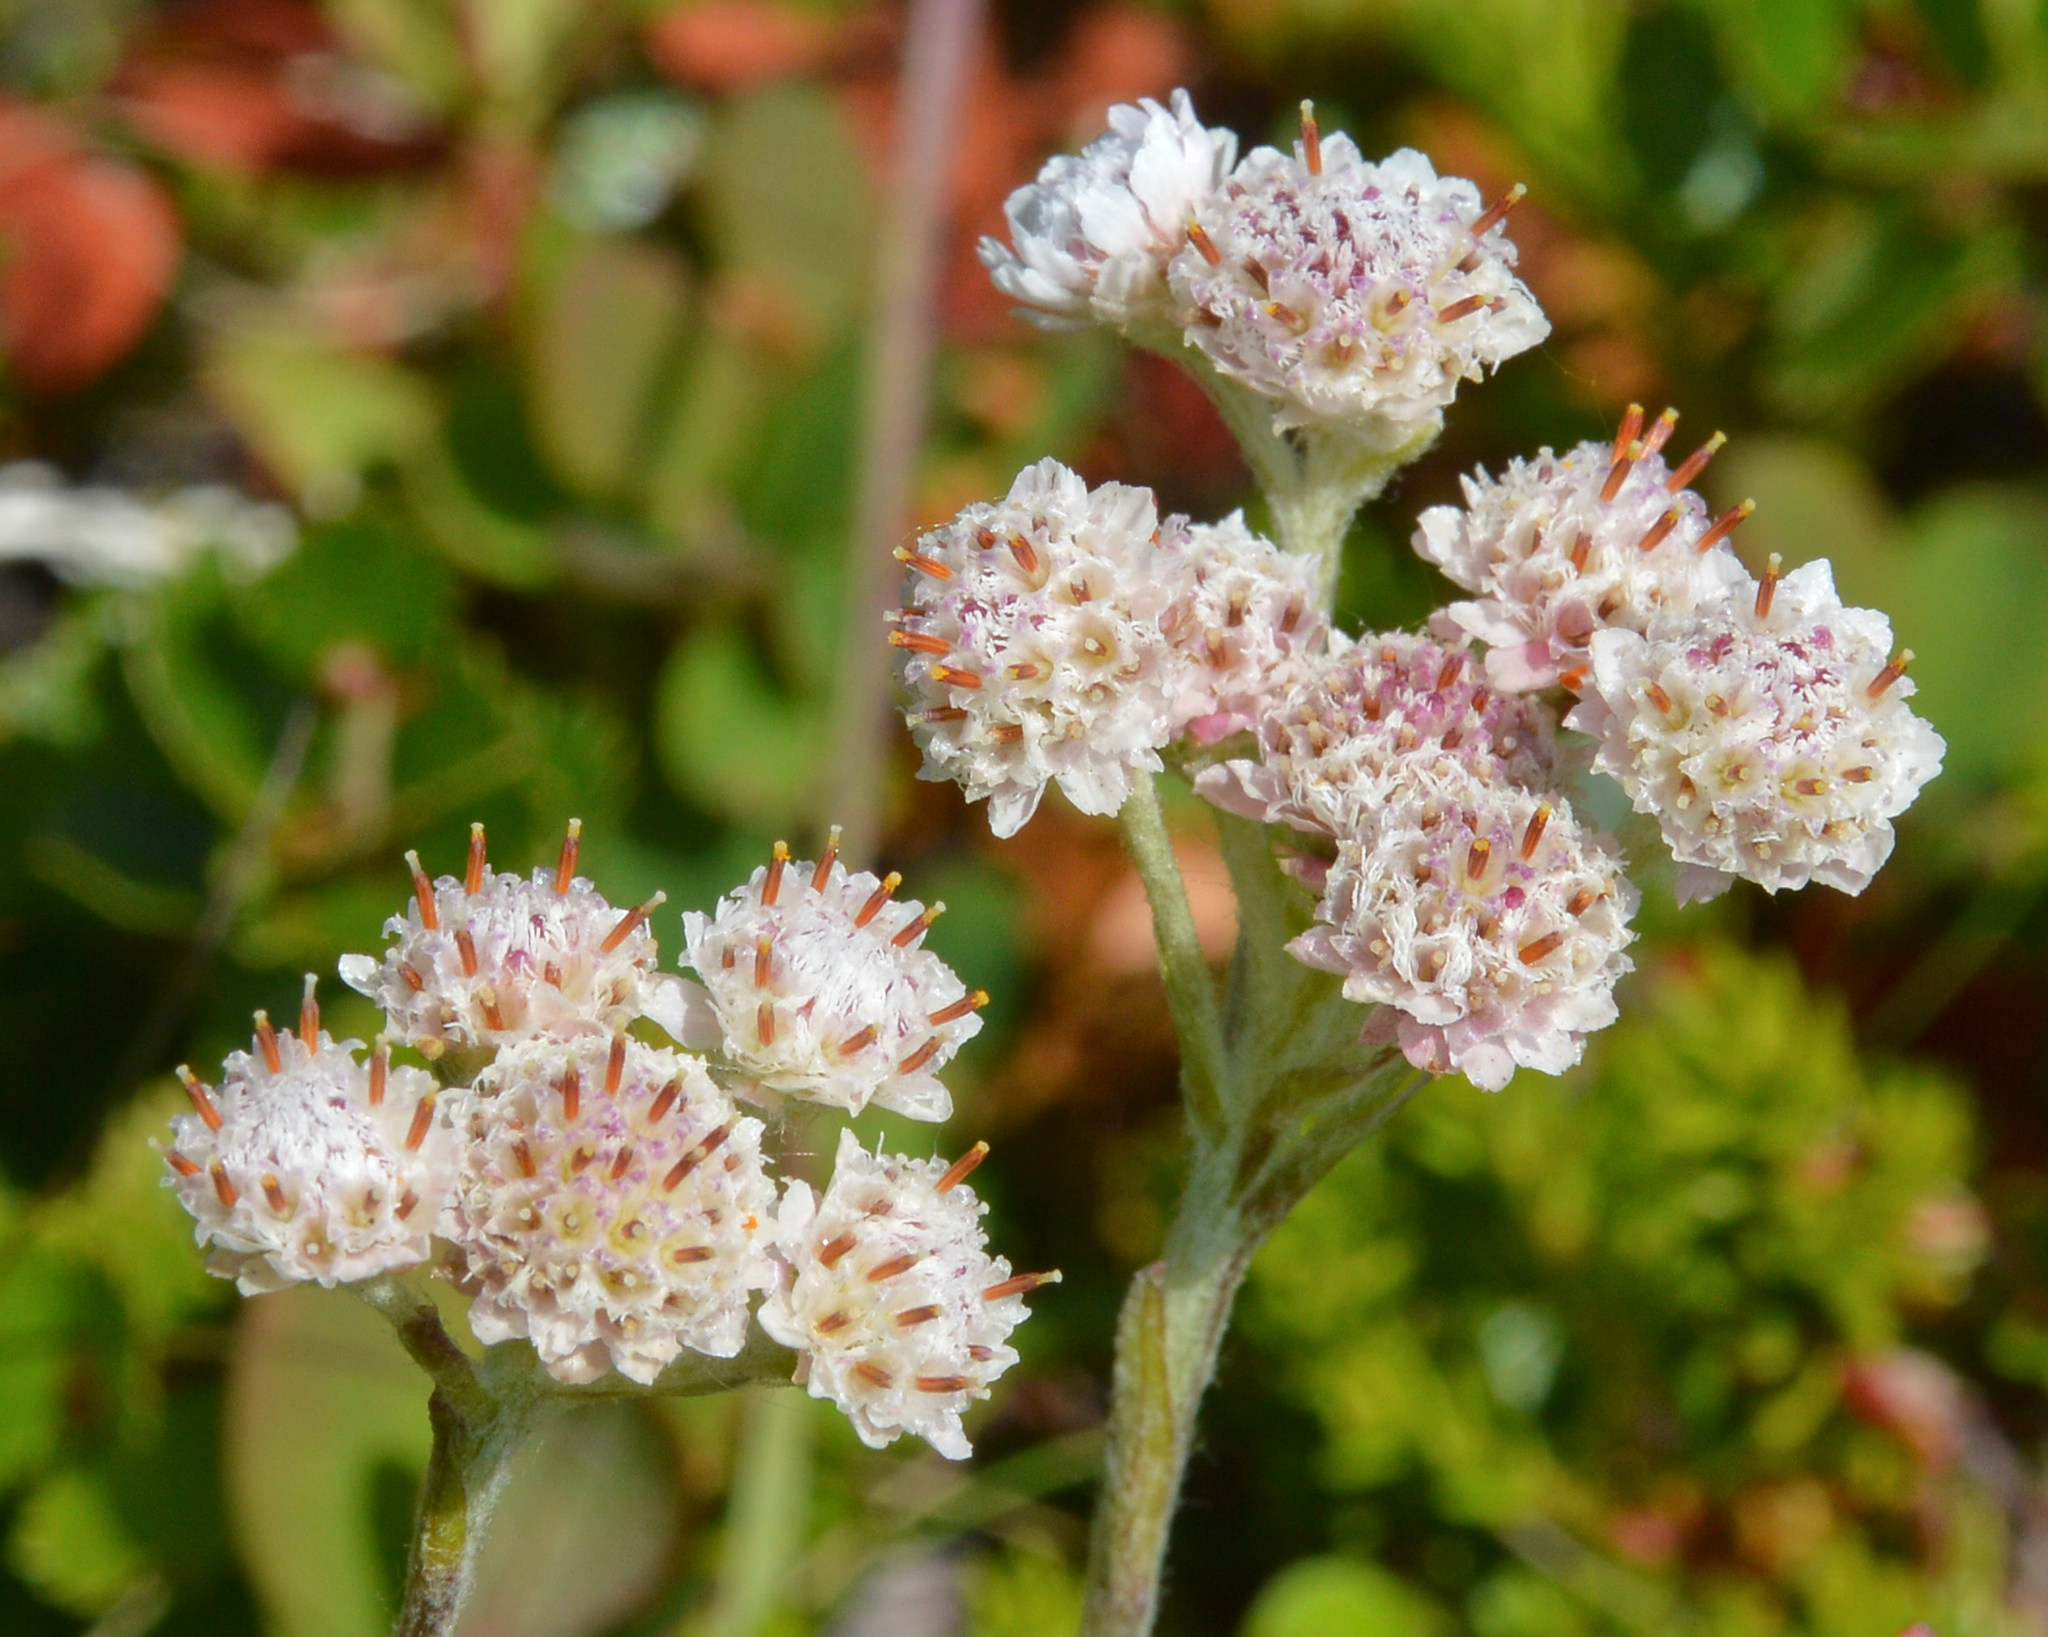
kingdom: Plantae
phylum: Tracheophyta
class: Magnoliopsida
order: Asterales
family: Asteraceae
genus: Antennaria
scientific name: Antennaria dioica
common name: Mountain everlasting
